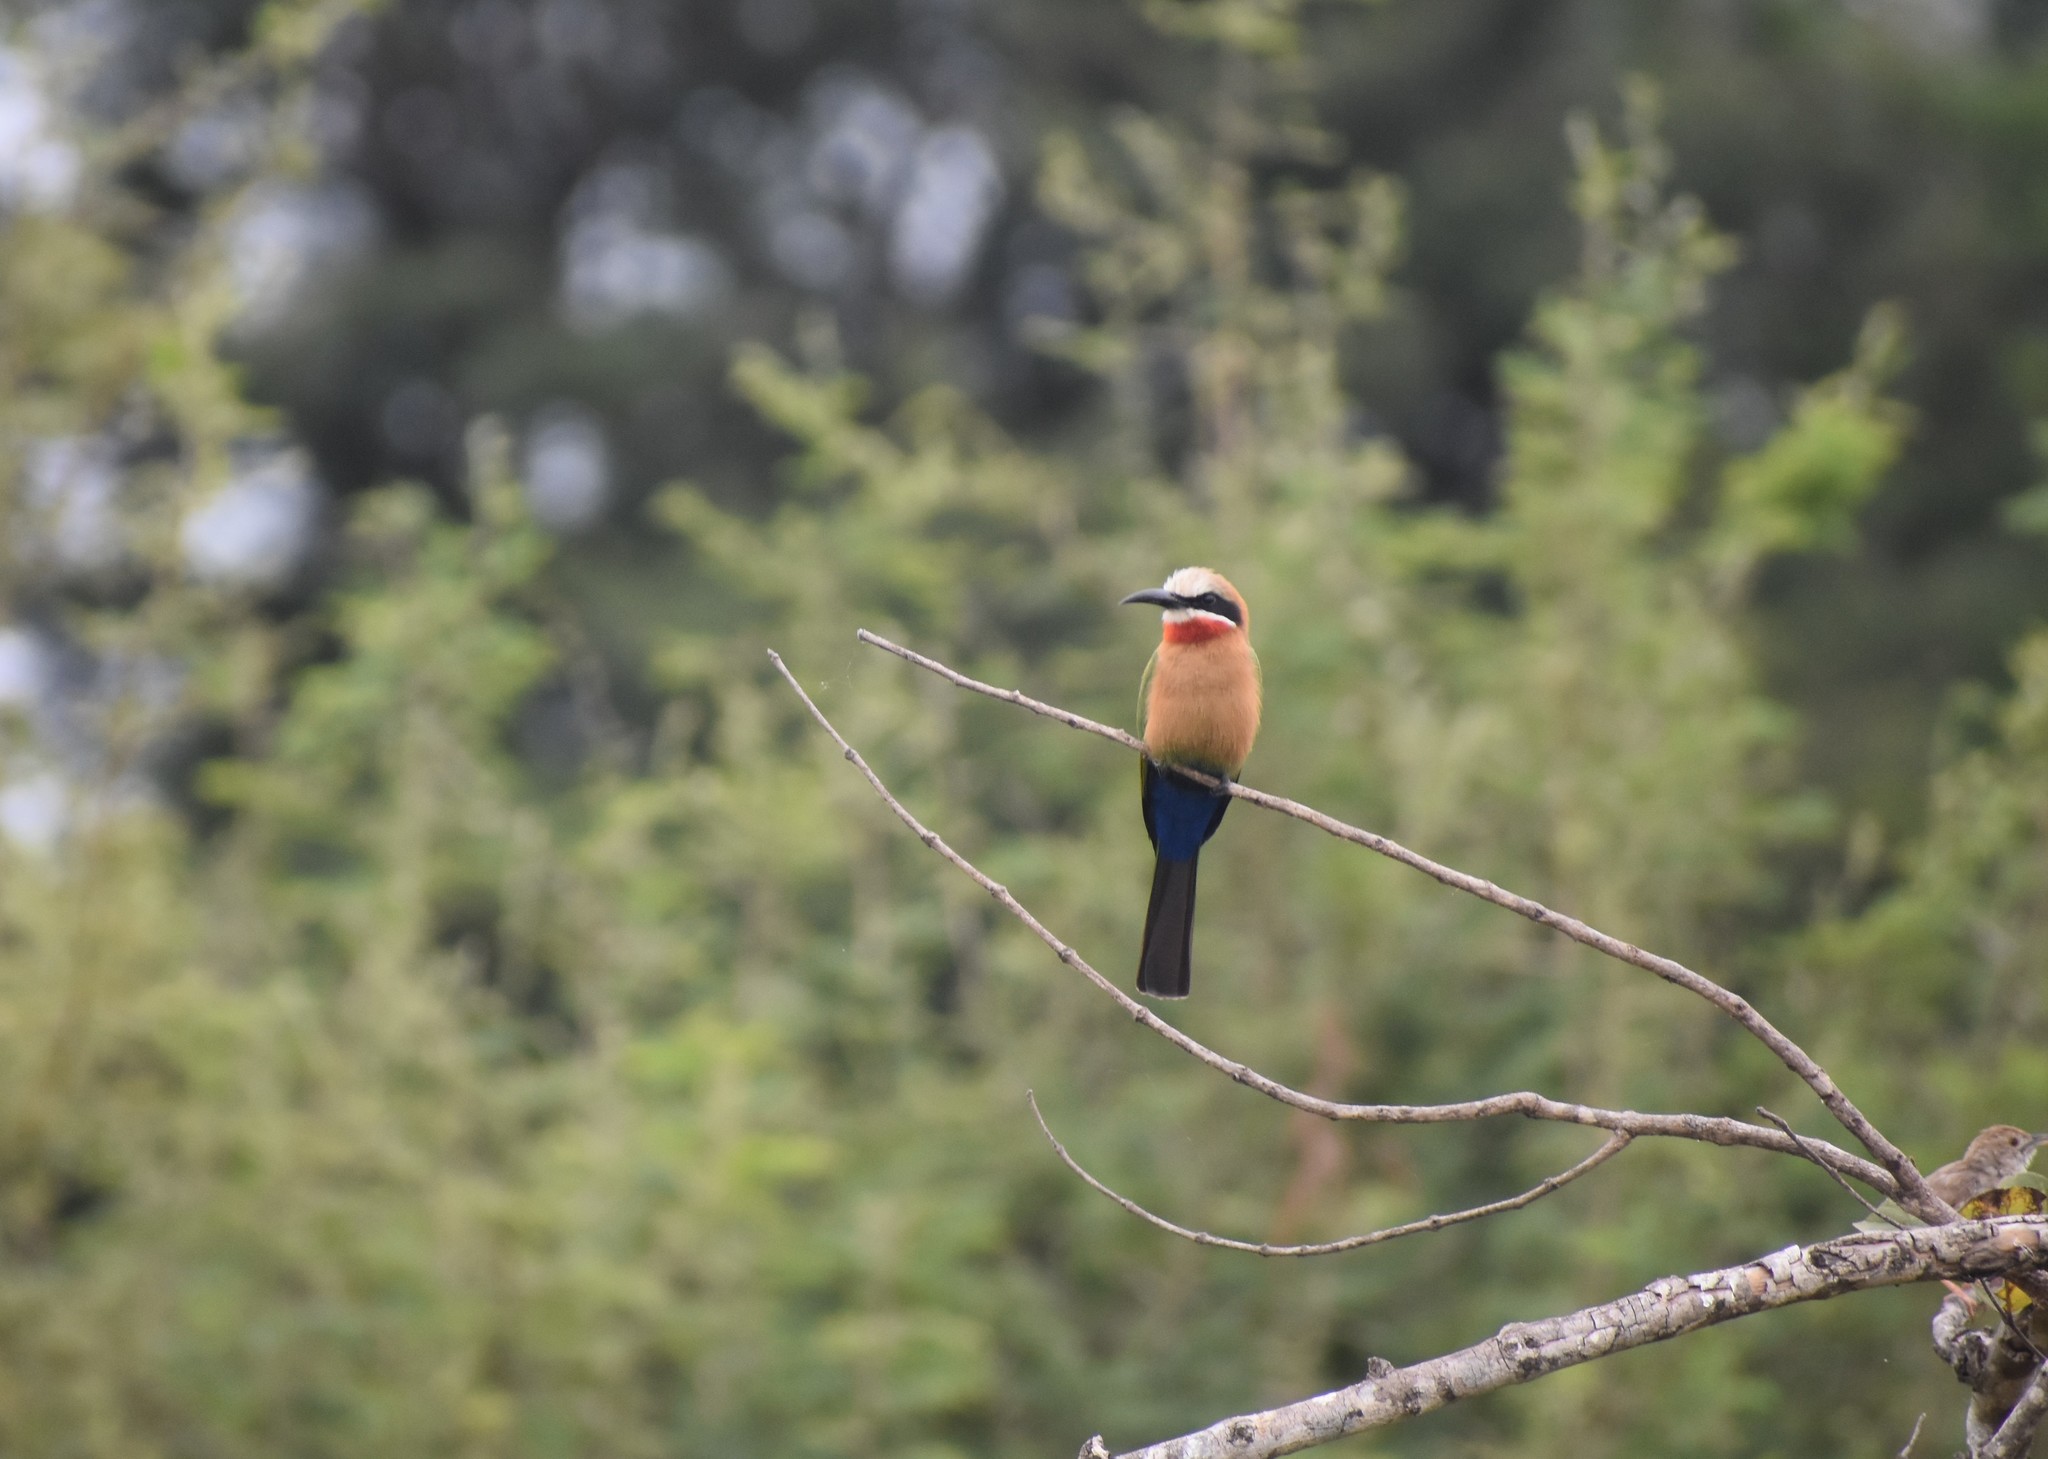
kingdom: Animalia
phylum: Chordata
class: Aves
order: Coraciiformes
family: Meropidae
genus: Merops
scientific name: Merops bullockoides
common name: White-fronted bee-eater
